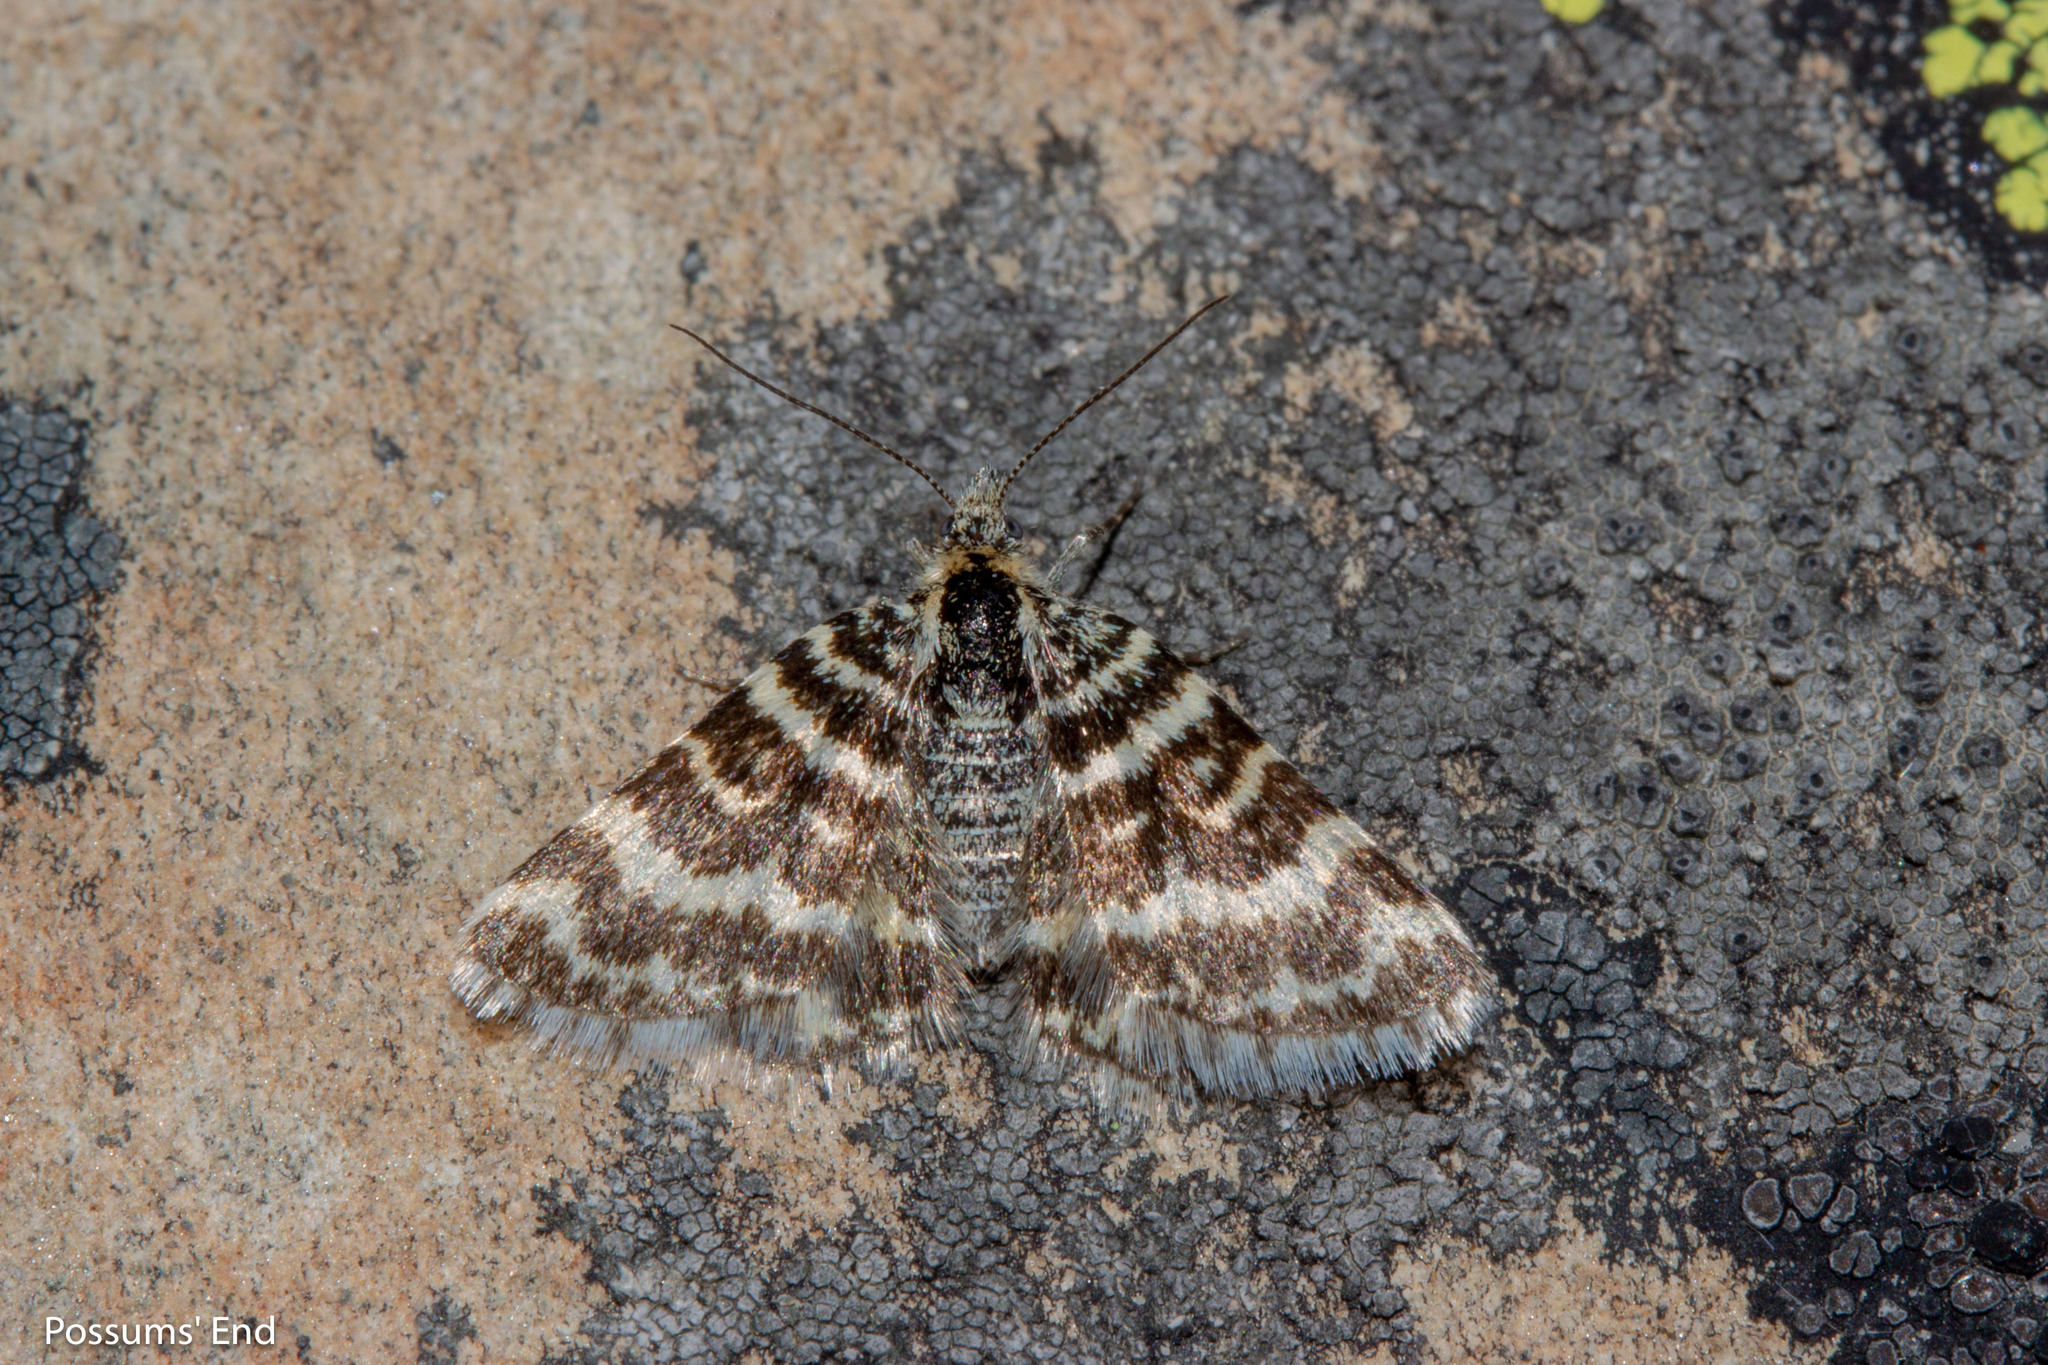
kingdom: Animalia
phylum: Arthropoda
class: Insecta
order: Lepidoptera
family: Geometridae
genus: Notoreas
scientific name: Notoreas hexaleuca
